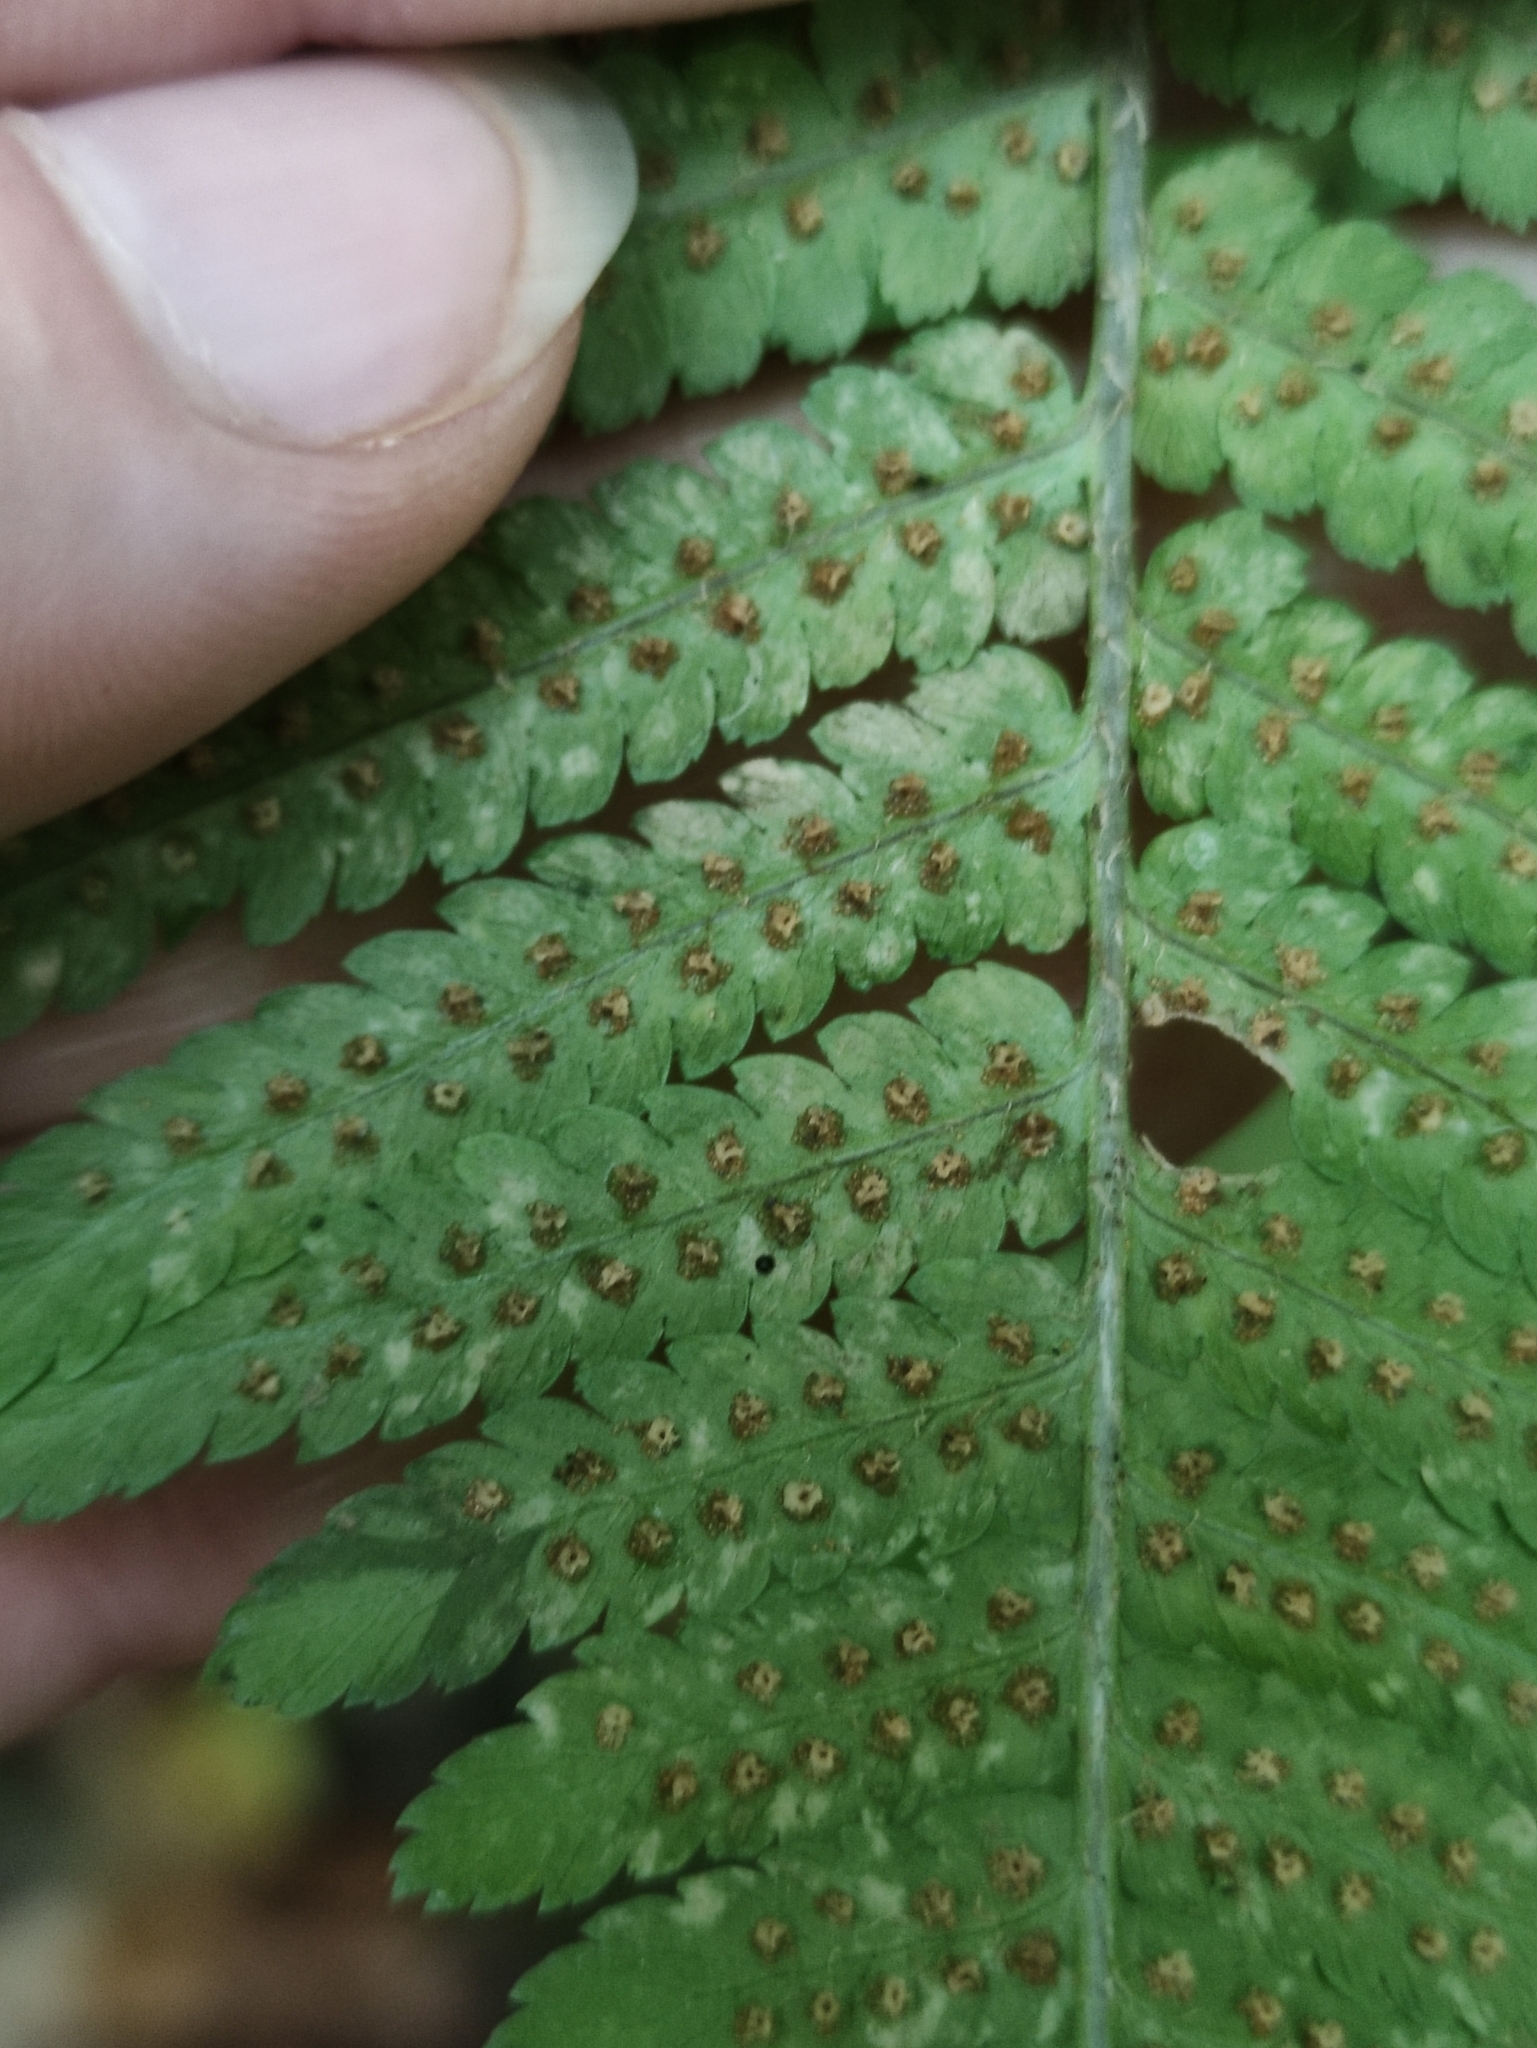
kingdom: Plantae
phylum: Tracheophyta
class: Polypodiopsida
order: Polypodiales
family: Dryopteridaceae
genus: Dryopteris
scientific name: Dryopteris filix-mas
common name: Male fern
